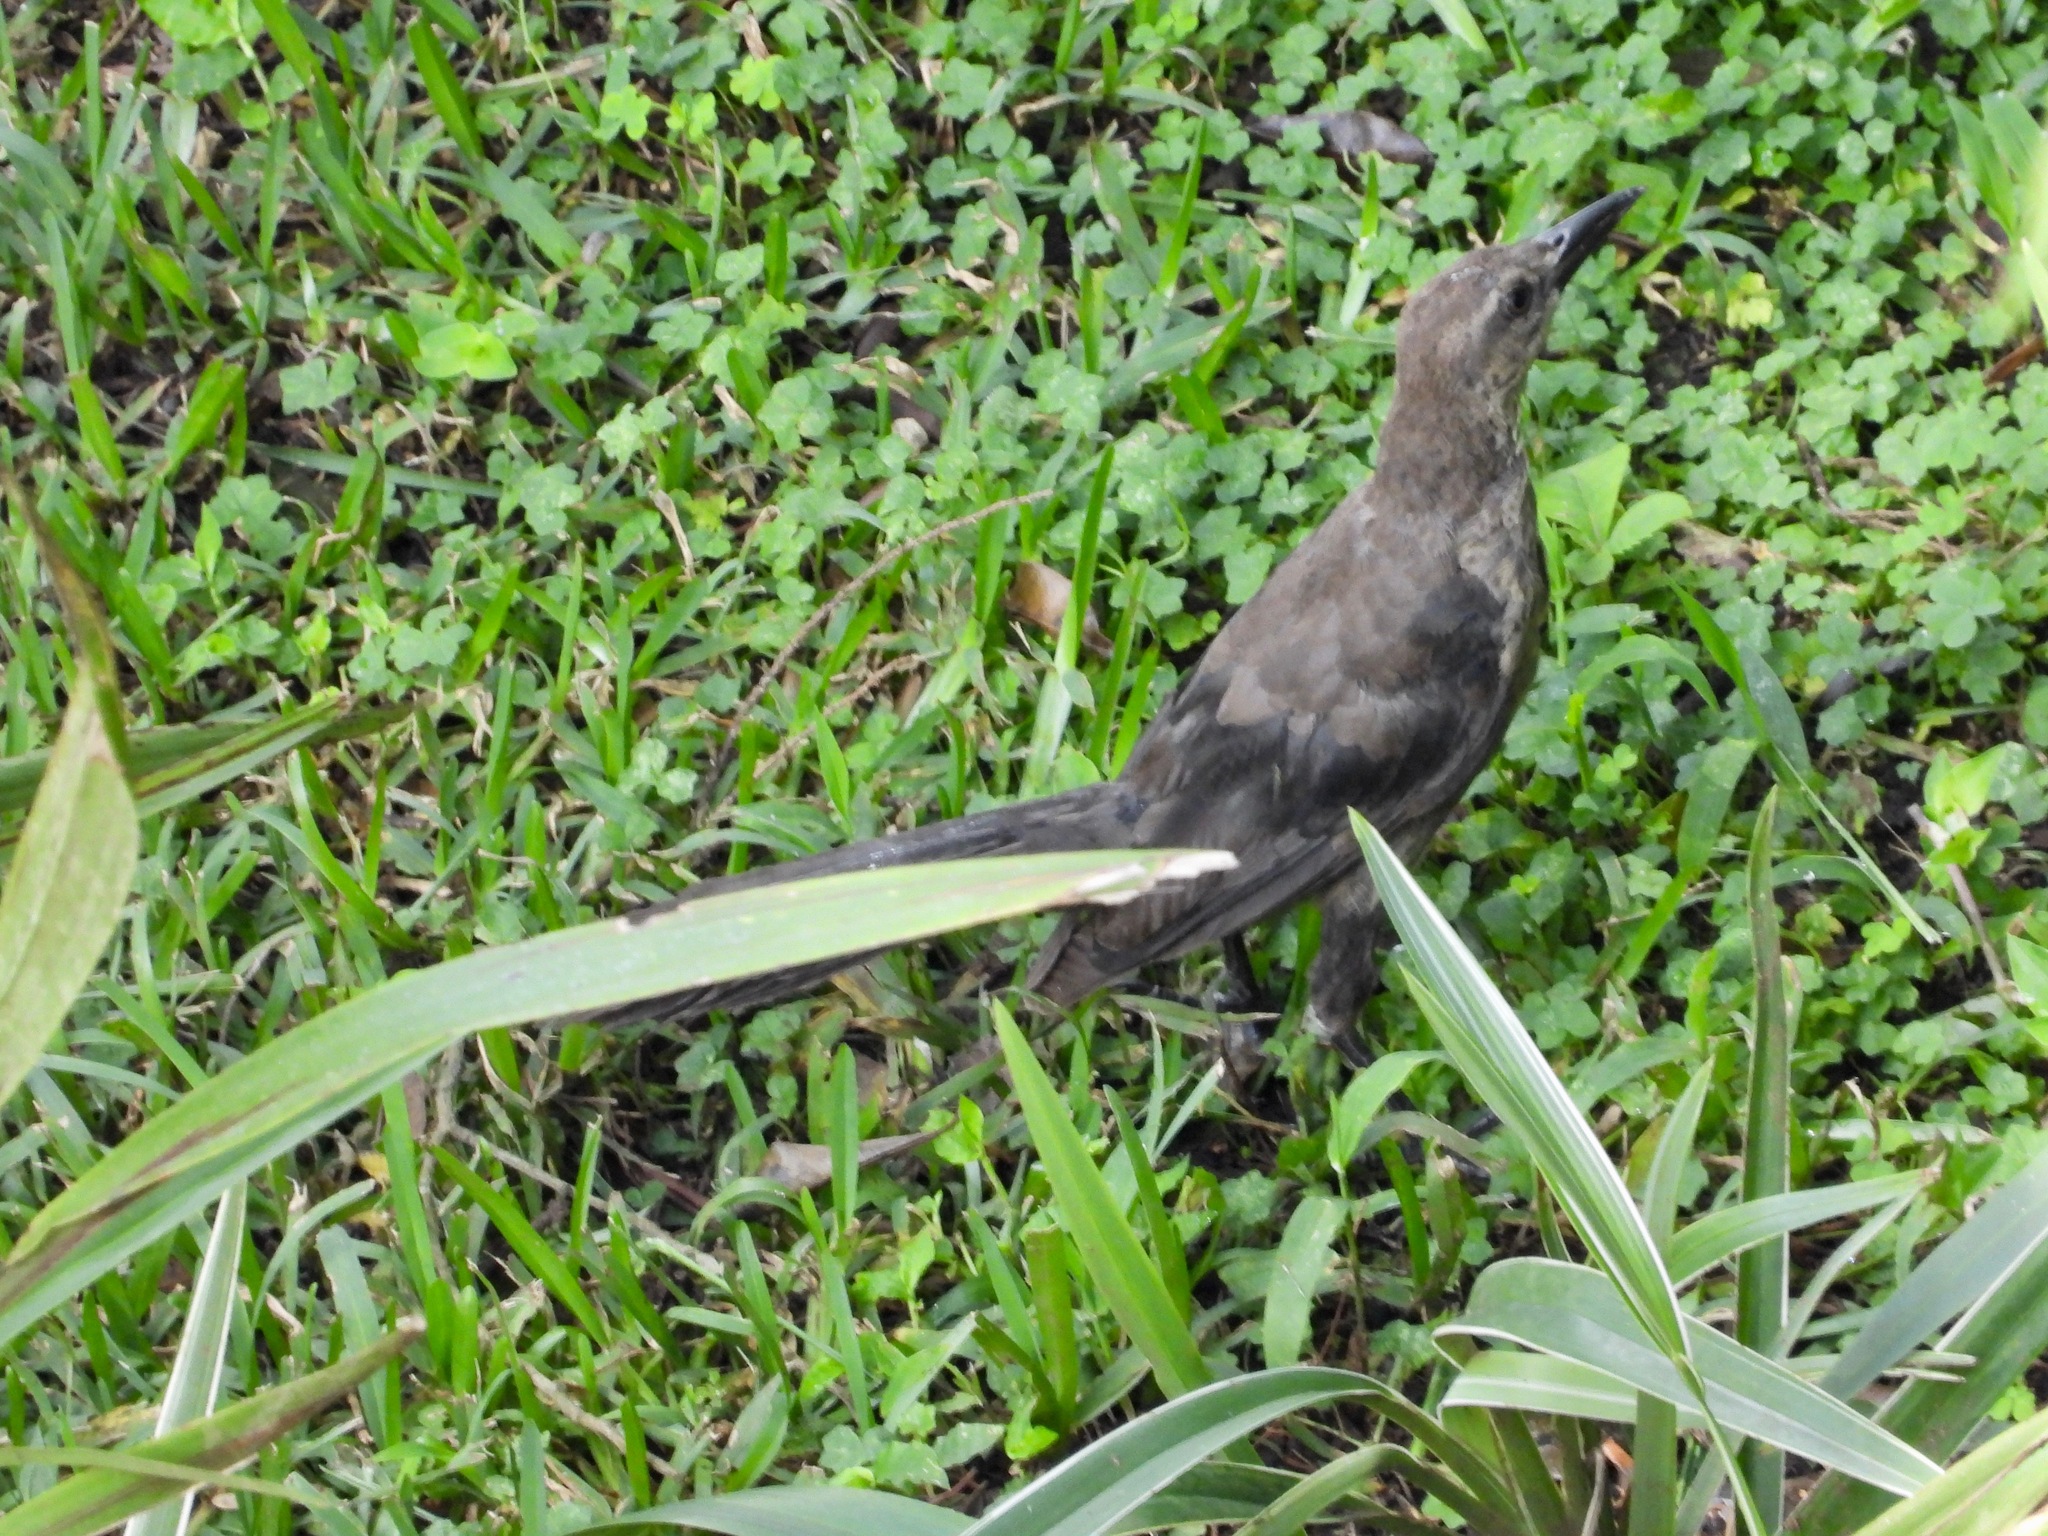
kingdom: Animalia
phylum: Chordata
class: Aves
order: Passeriformes
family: Icteridae
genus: Quiscalus
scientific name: Quiscalus mexicanus
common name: Great-tailed grackle
